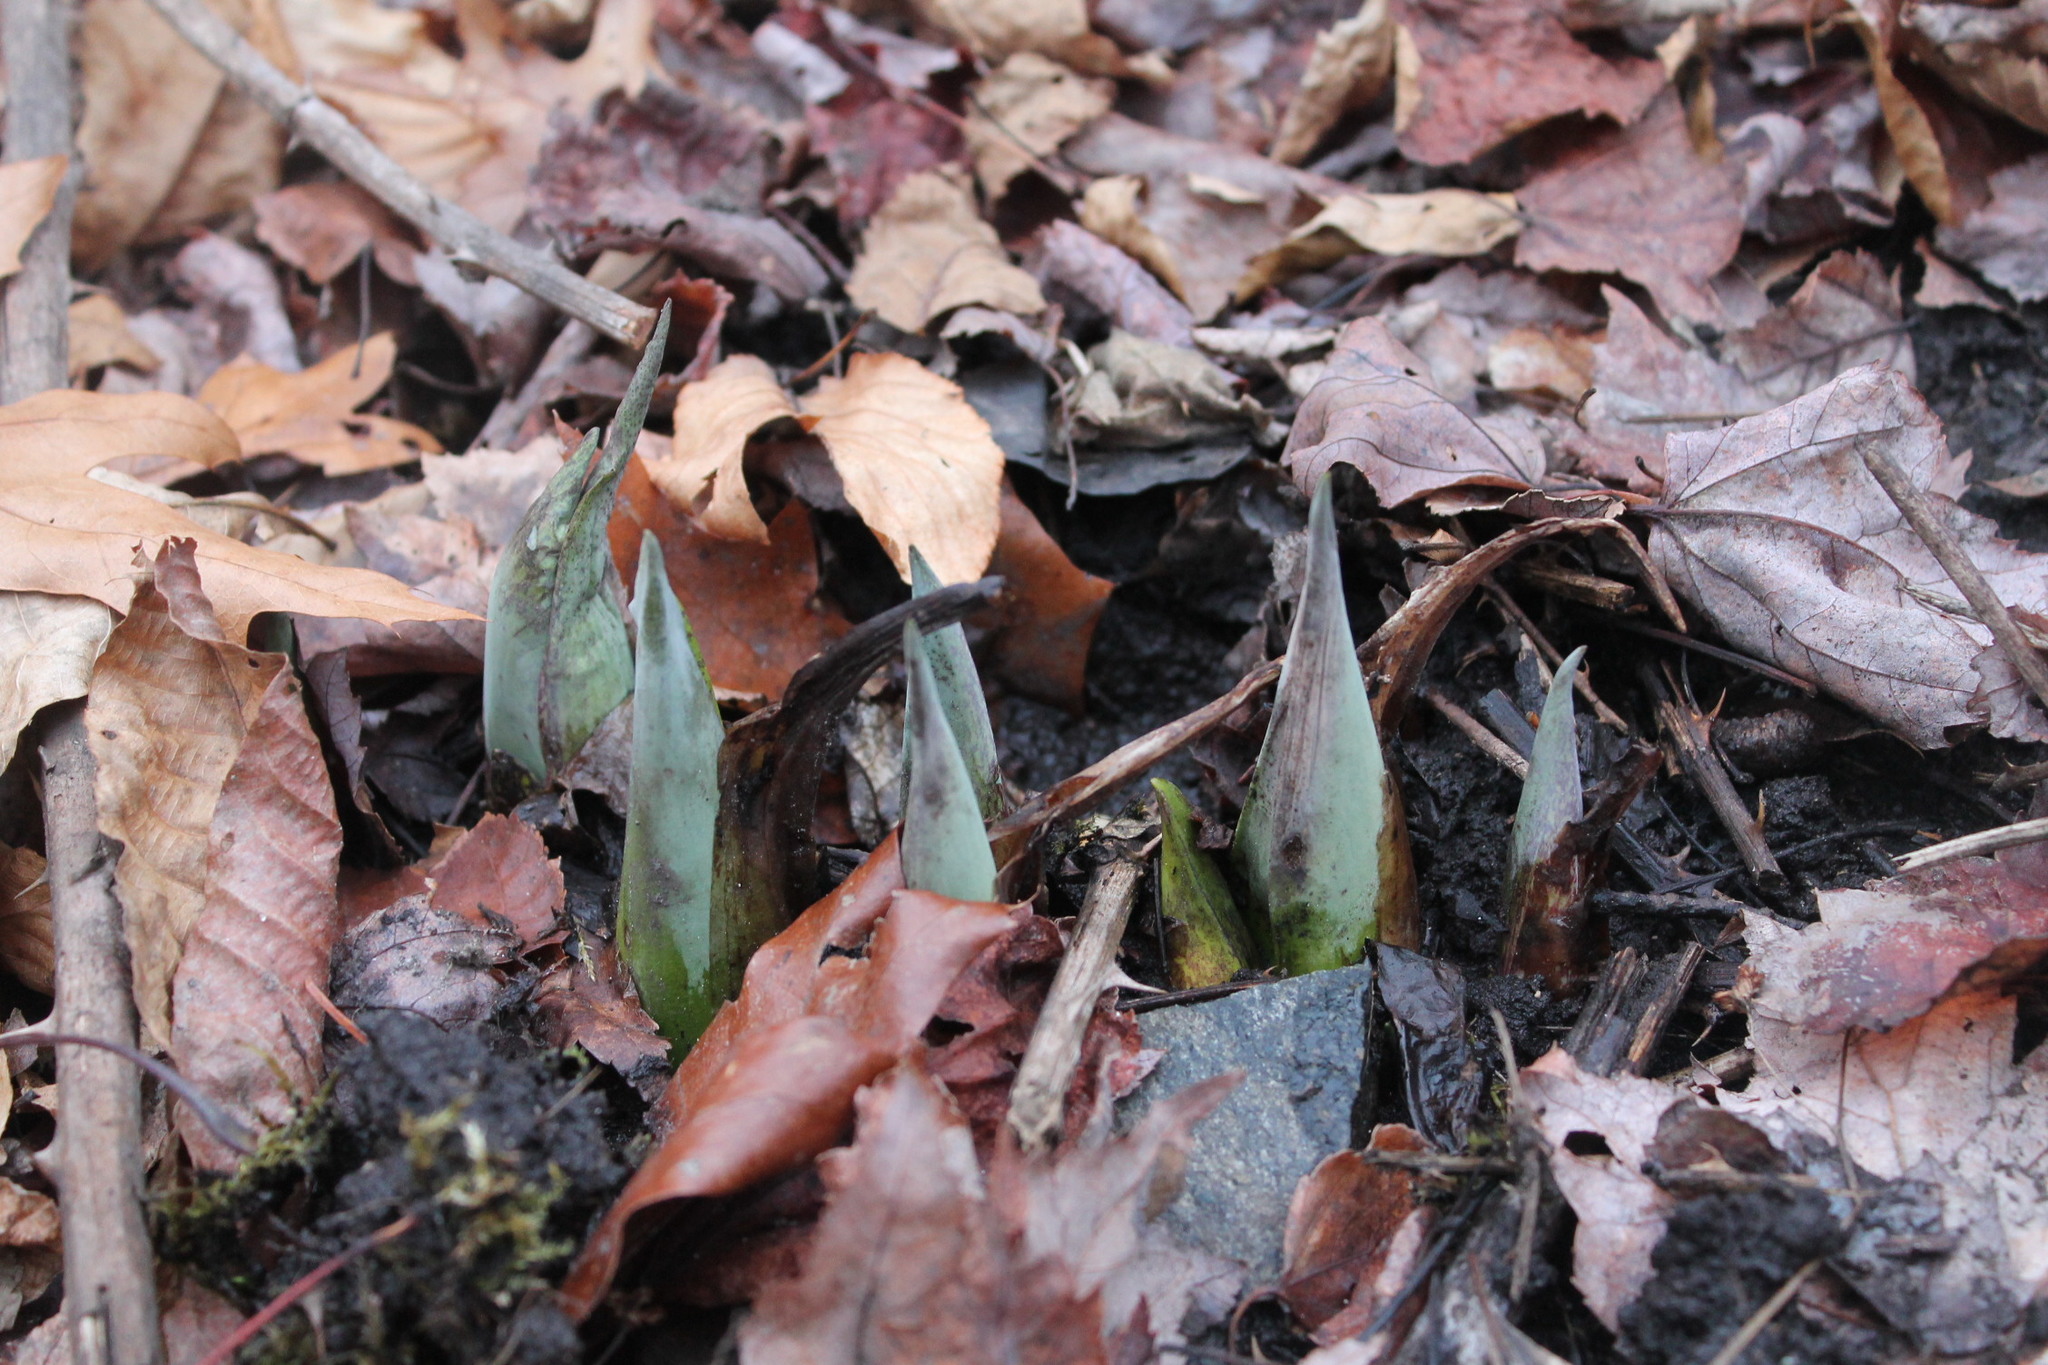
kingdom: Plantae
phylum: Tracheophyta
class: Liliopsida
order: Alismatales
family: Araceae
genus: Symplocarpus
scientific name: Symplocarpus foetidus
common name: Eastern skunk cabbage
